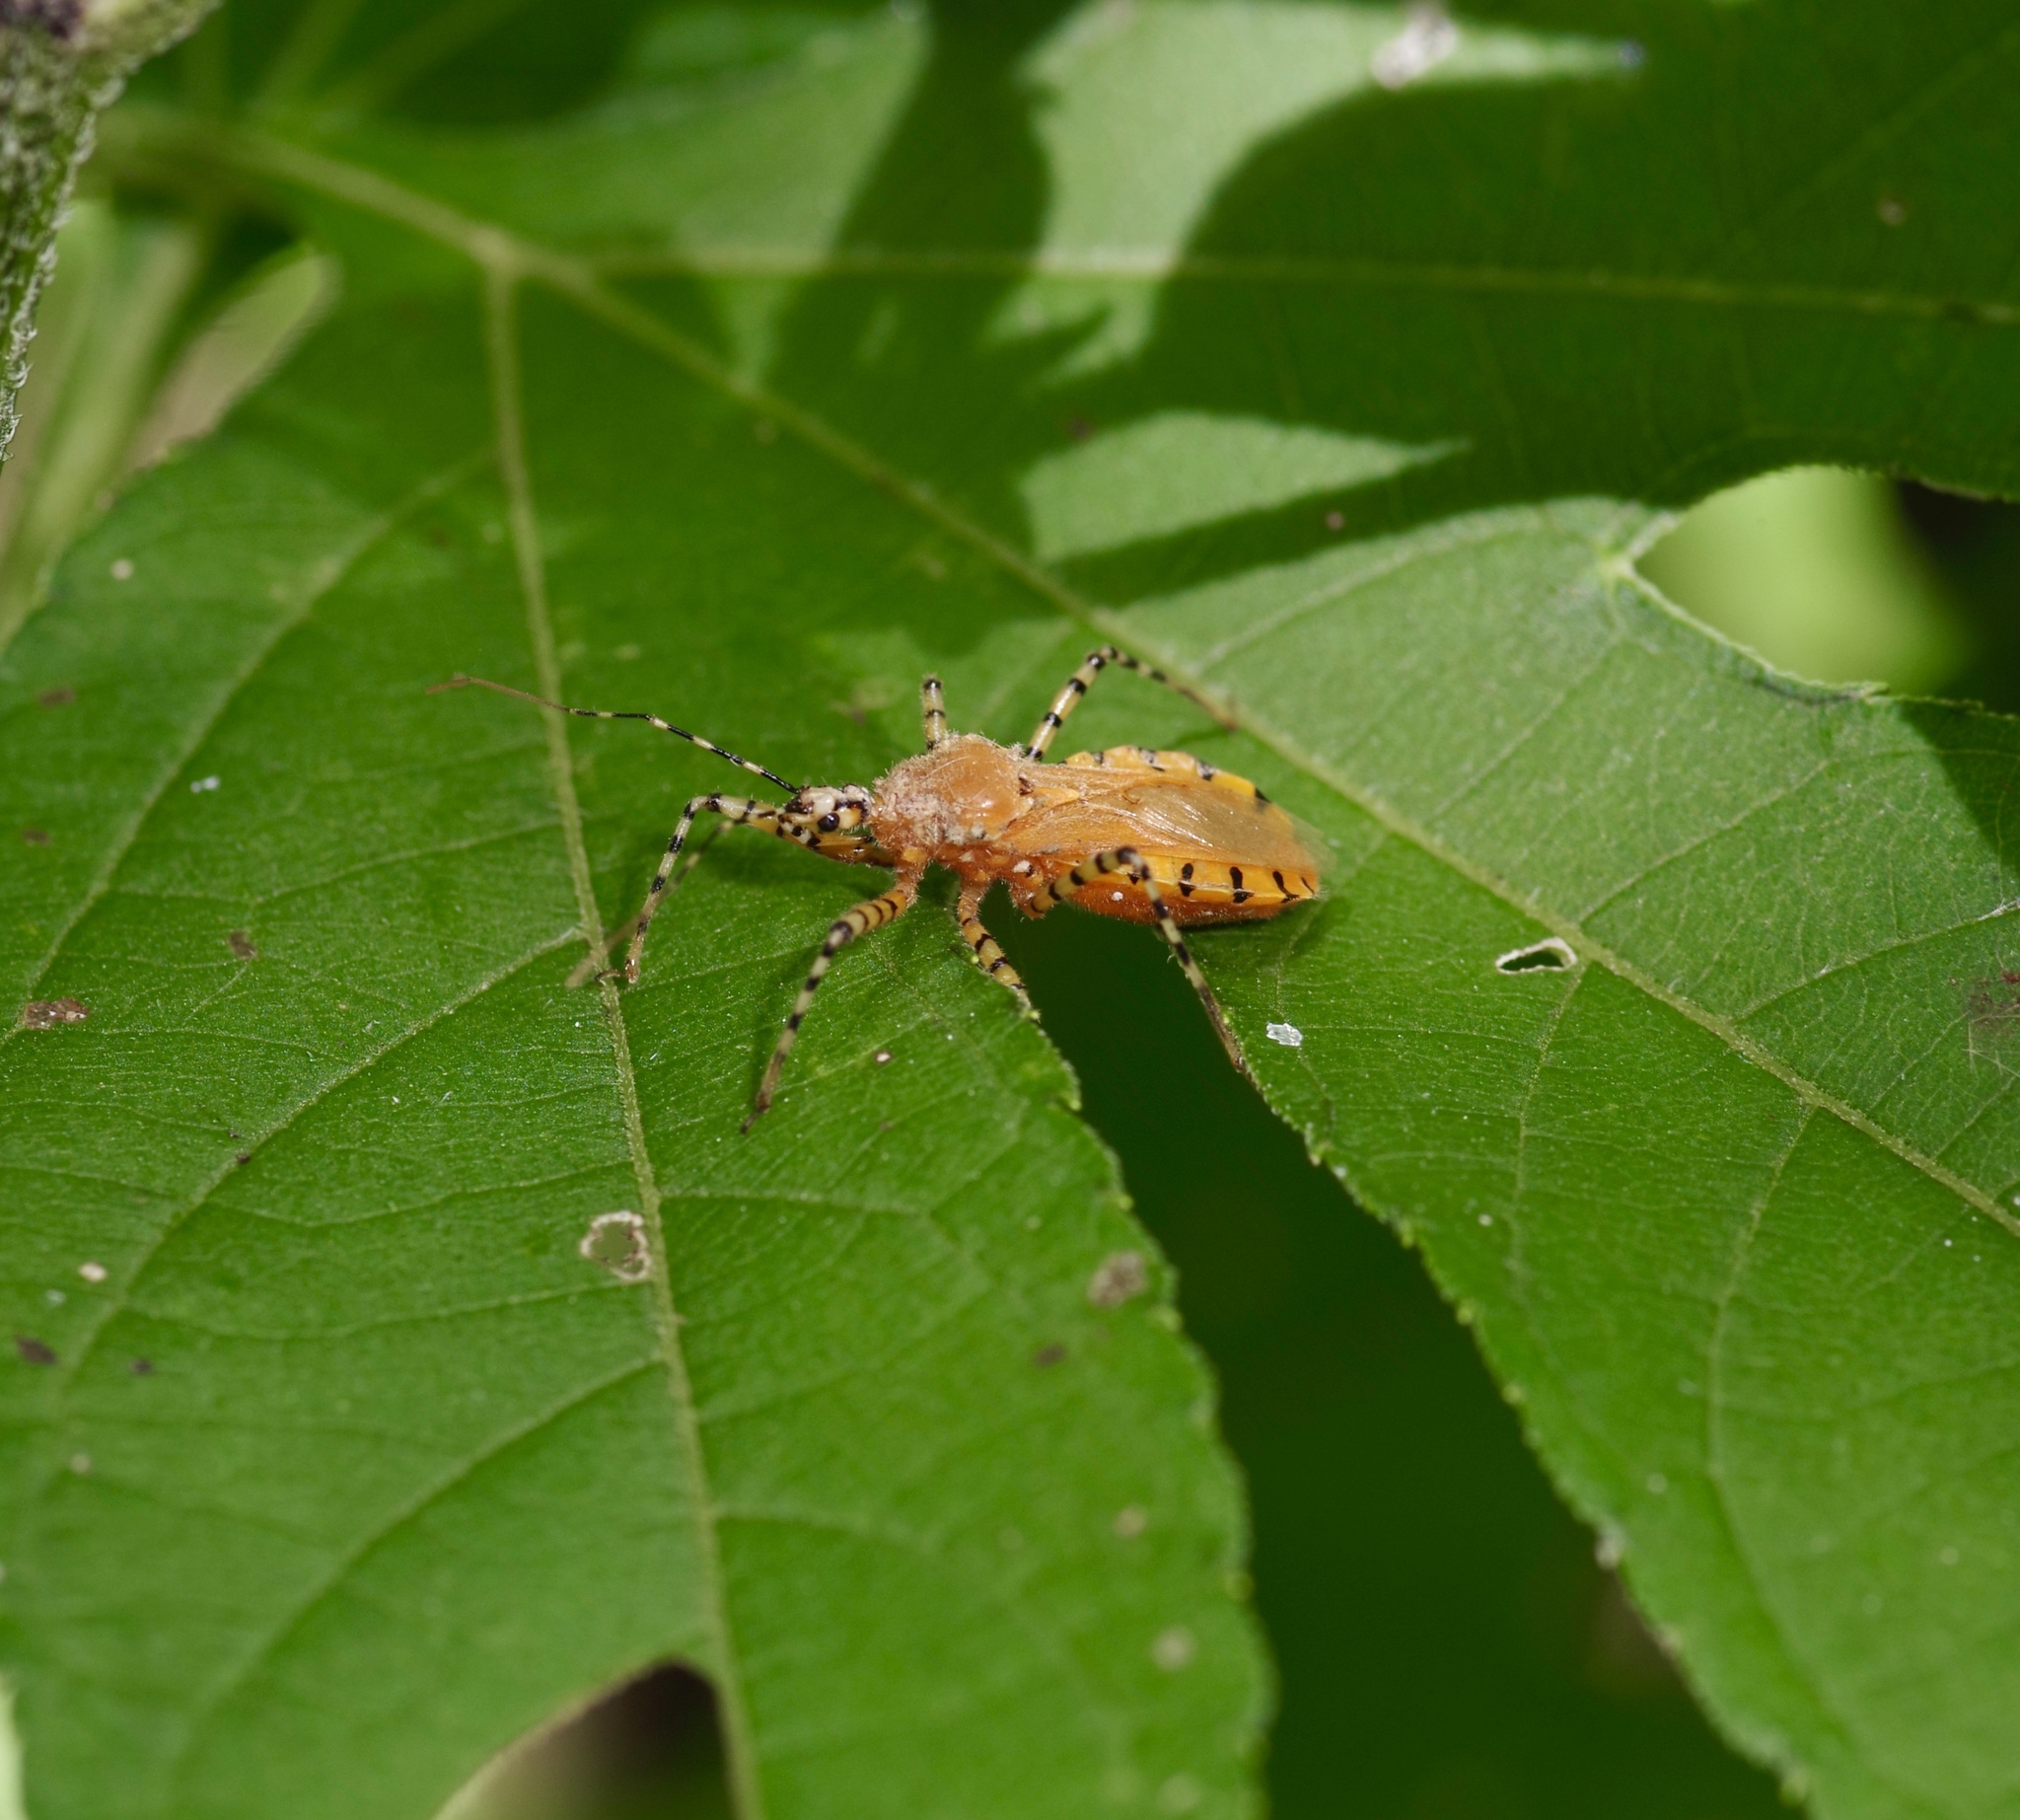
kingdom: Animalia
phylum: Arthropoda
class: Insecta
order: Hemiptera
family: Reduviidae
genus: Pselliopus
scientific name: Pselliopus barberi
